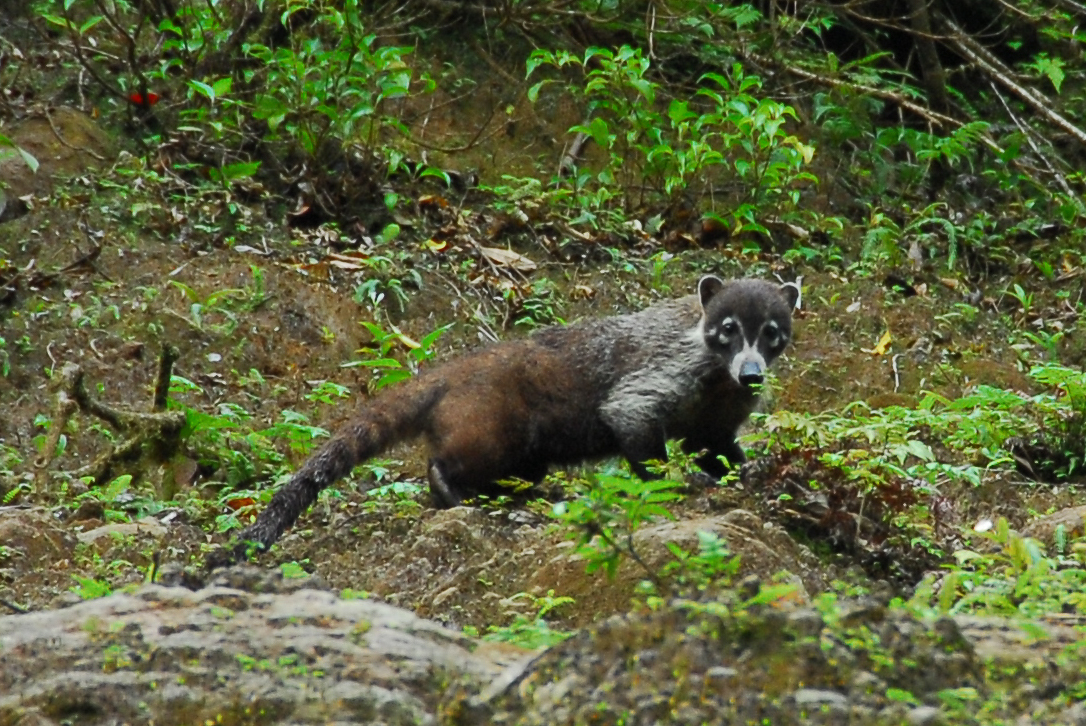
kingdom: Animalia
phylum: Chordata
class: Mammalia
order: Carnivora
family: Procyonidae
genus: Nasua
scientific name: Nasua narica
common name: White-nosed coati
